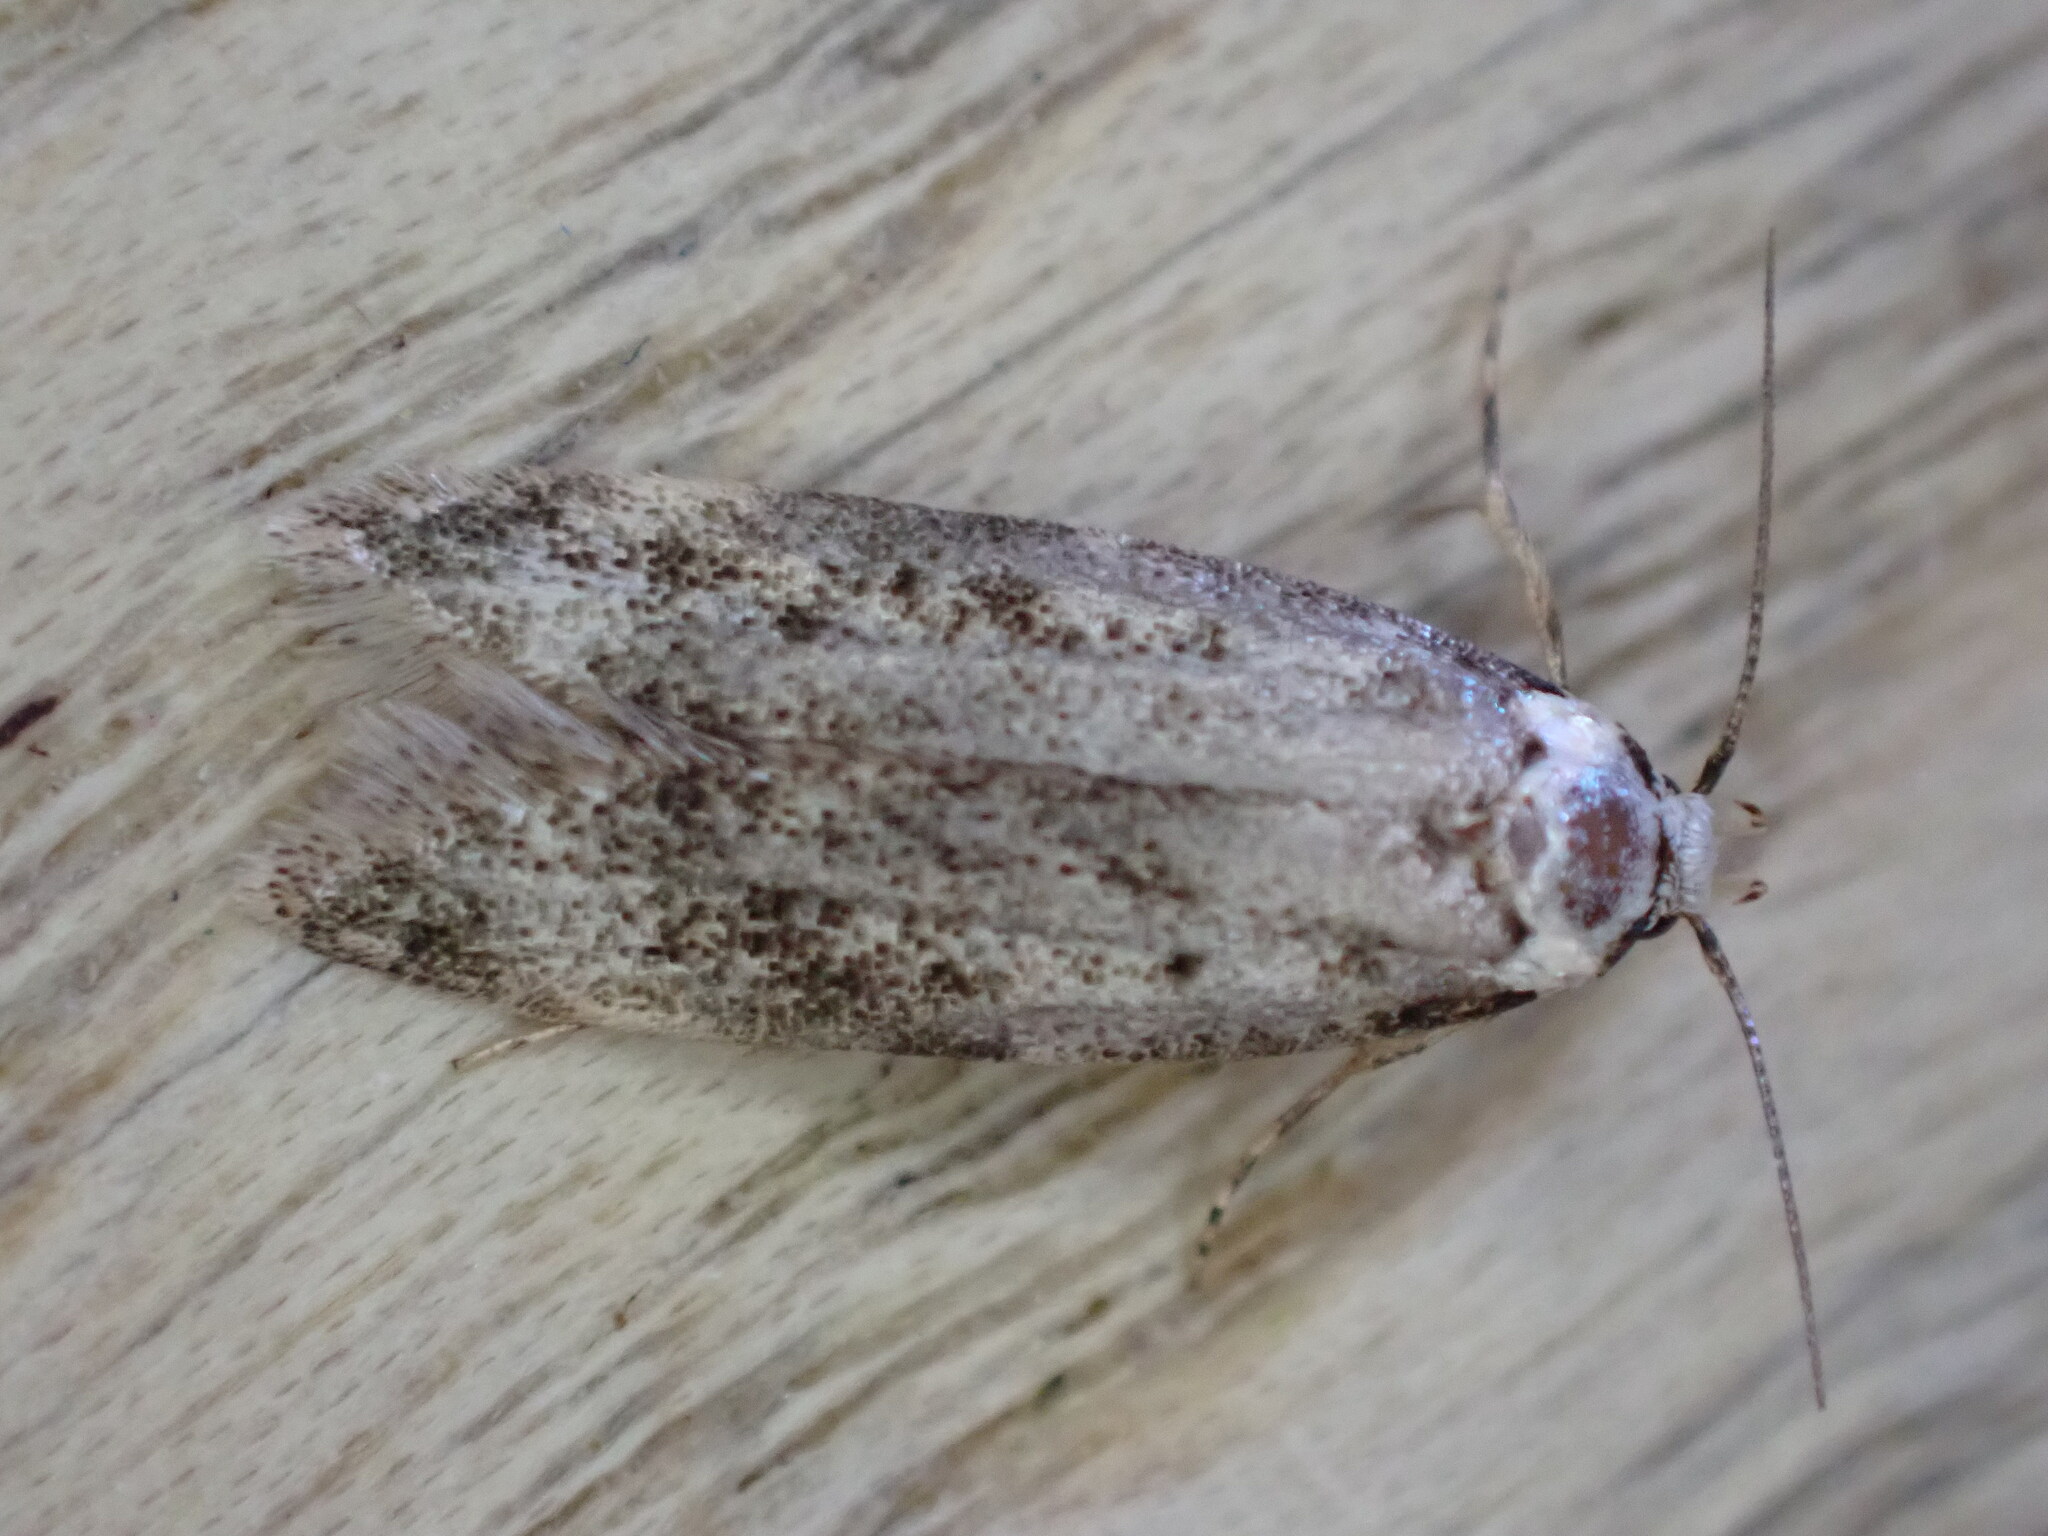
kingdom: Animalia
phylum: Arthropoda
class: Insecta
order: Lepidoptera
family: Oecophoridae
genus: Endrosis
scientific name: Endrosis sarcitrella
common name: White-shouldered house moth
